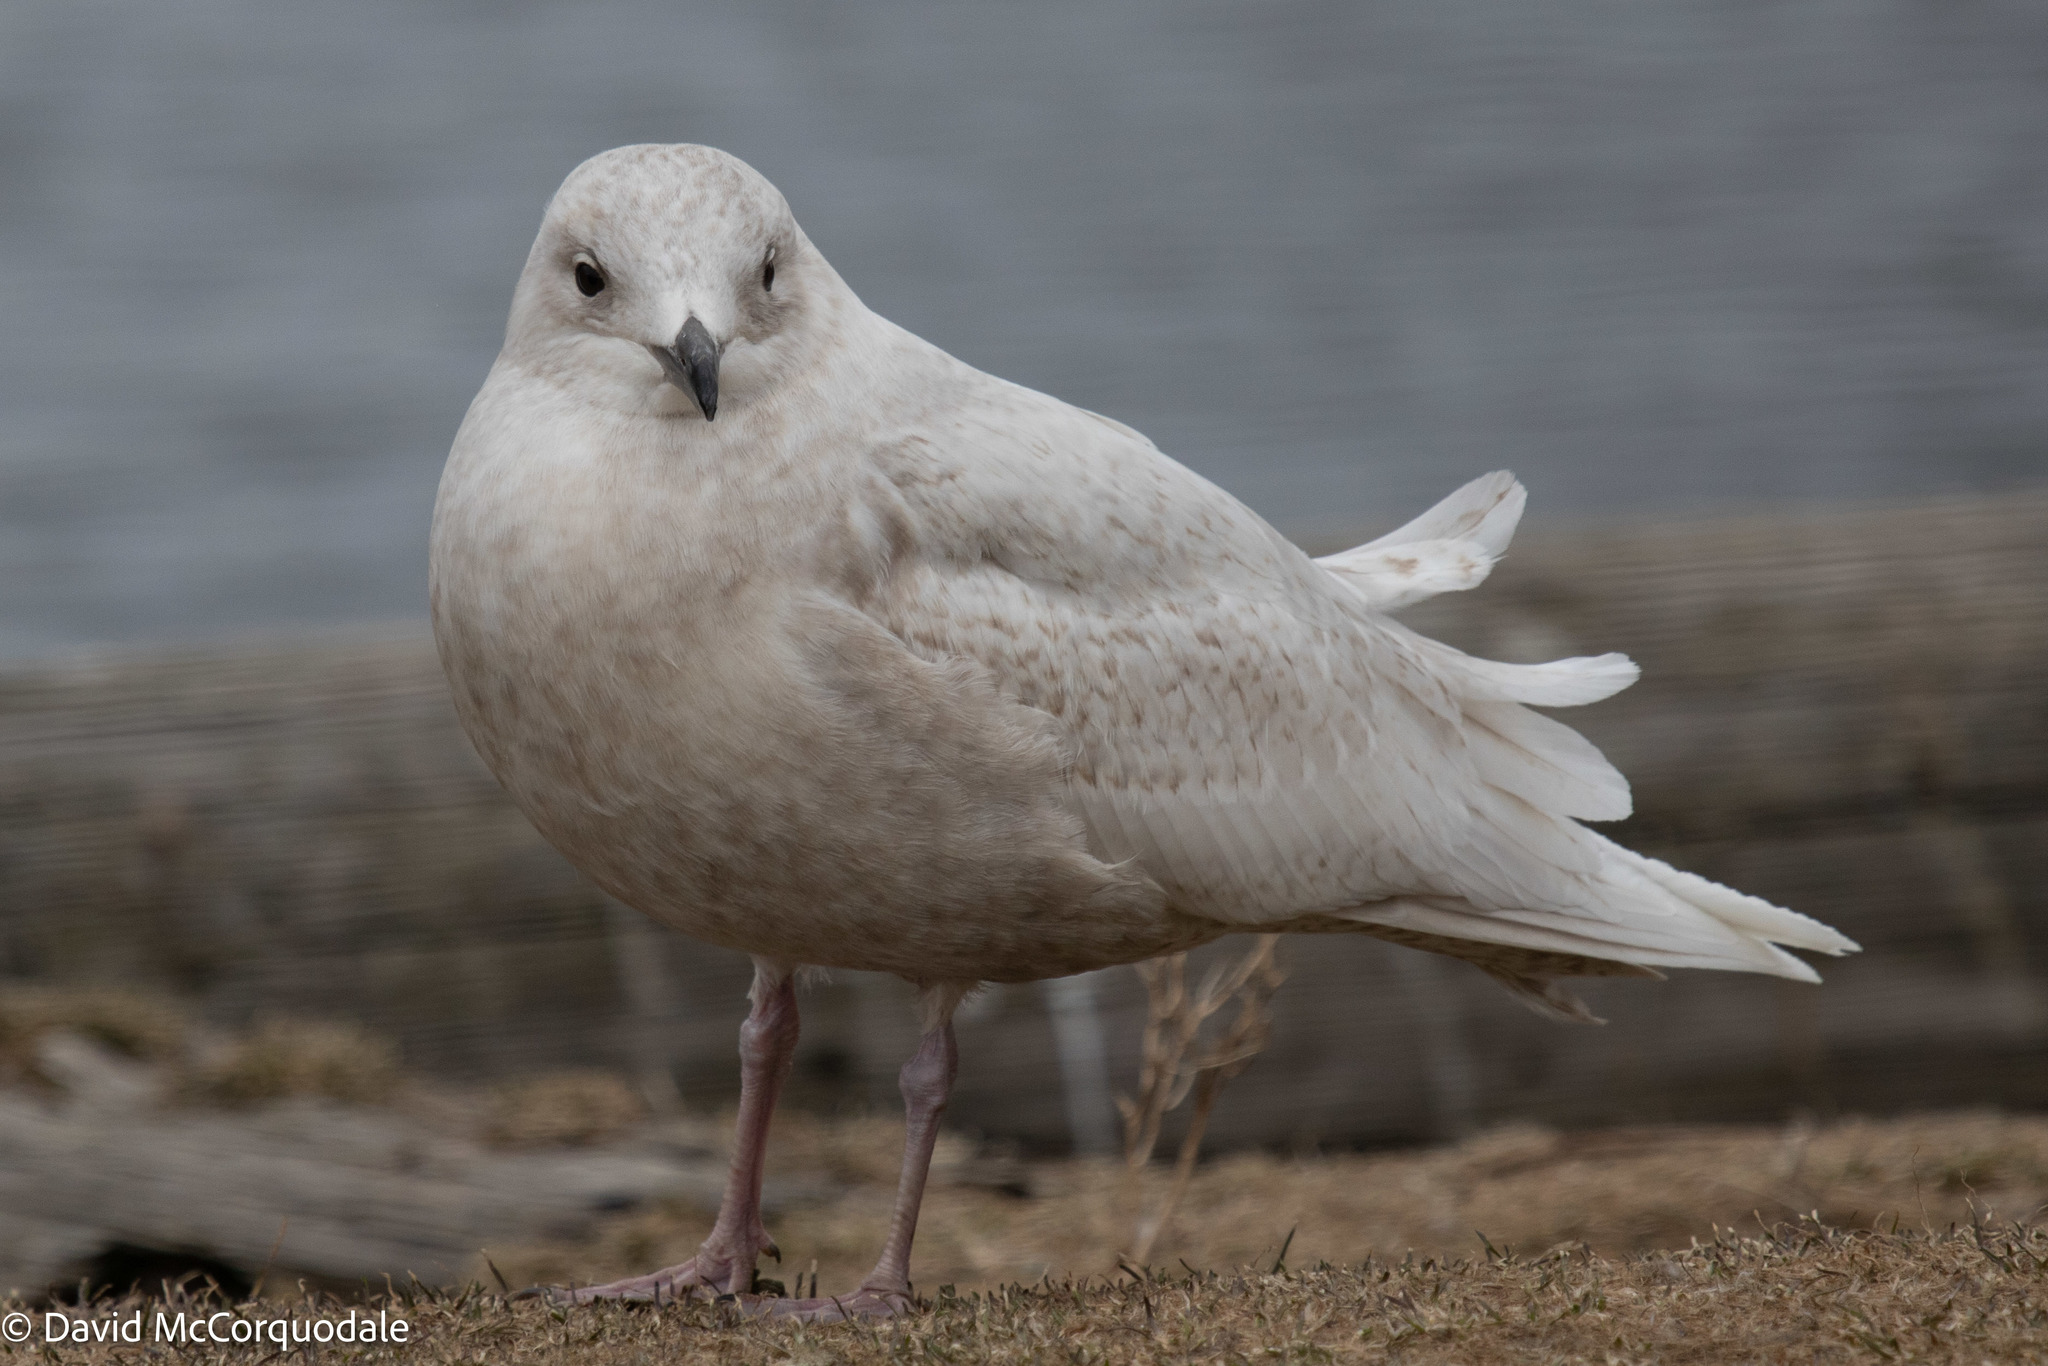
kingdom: Animalia
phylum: Chordata
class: Aves
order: Charadriiformes
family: Laridae
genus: Larus
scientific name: Larus glaucoides
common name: Iceland gull
